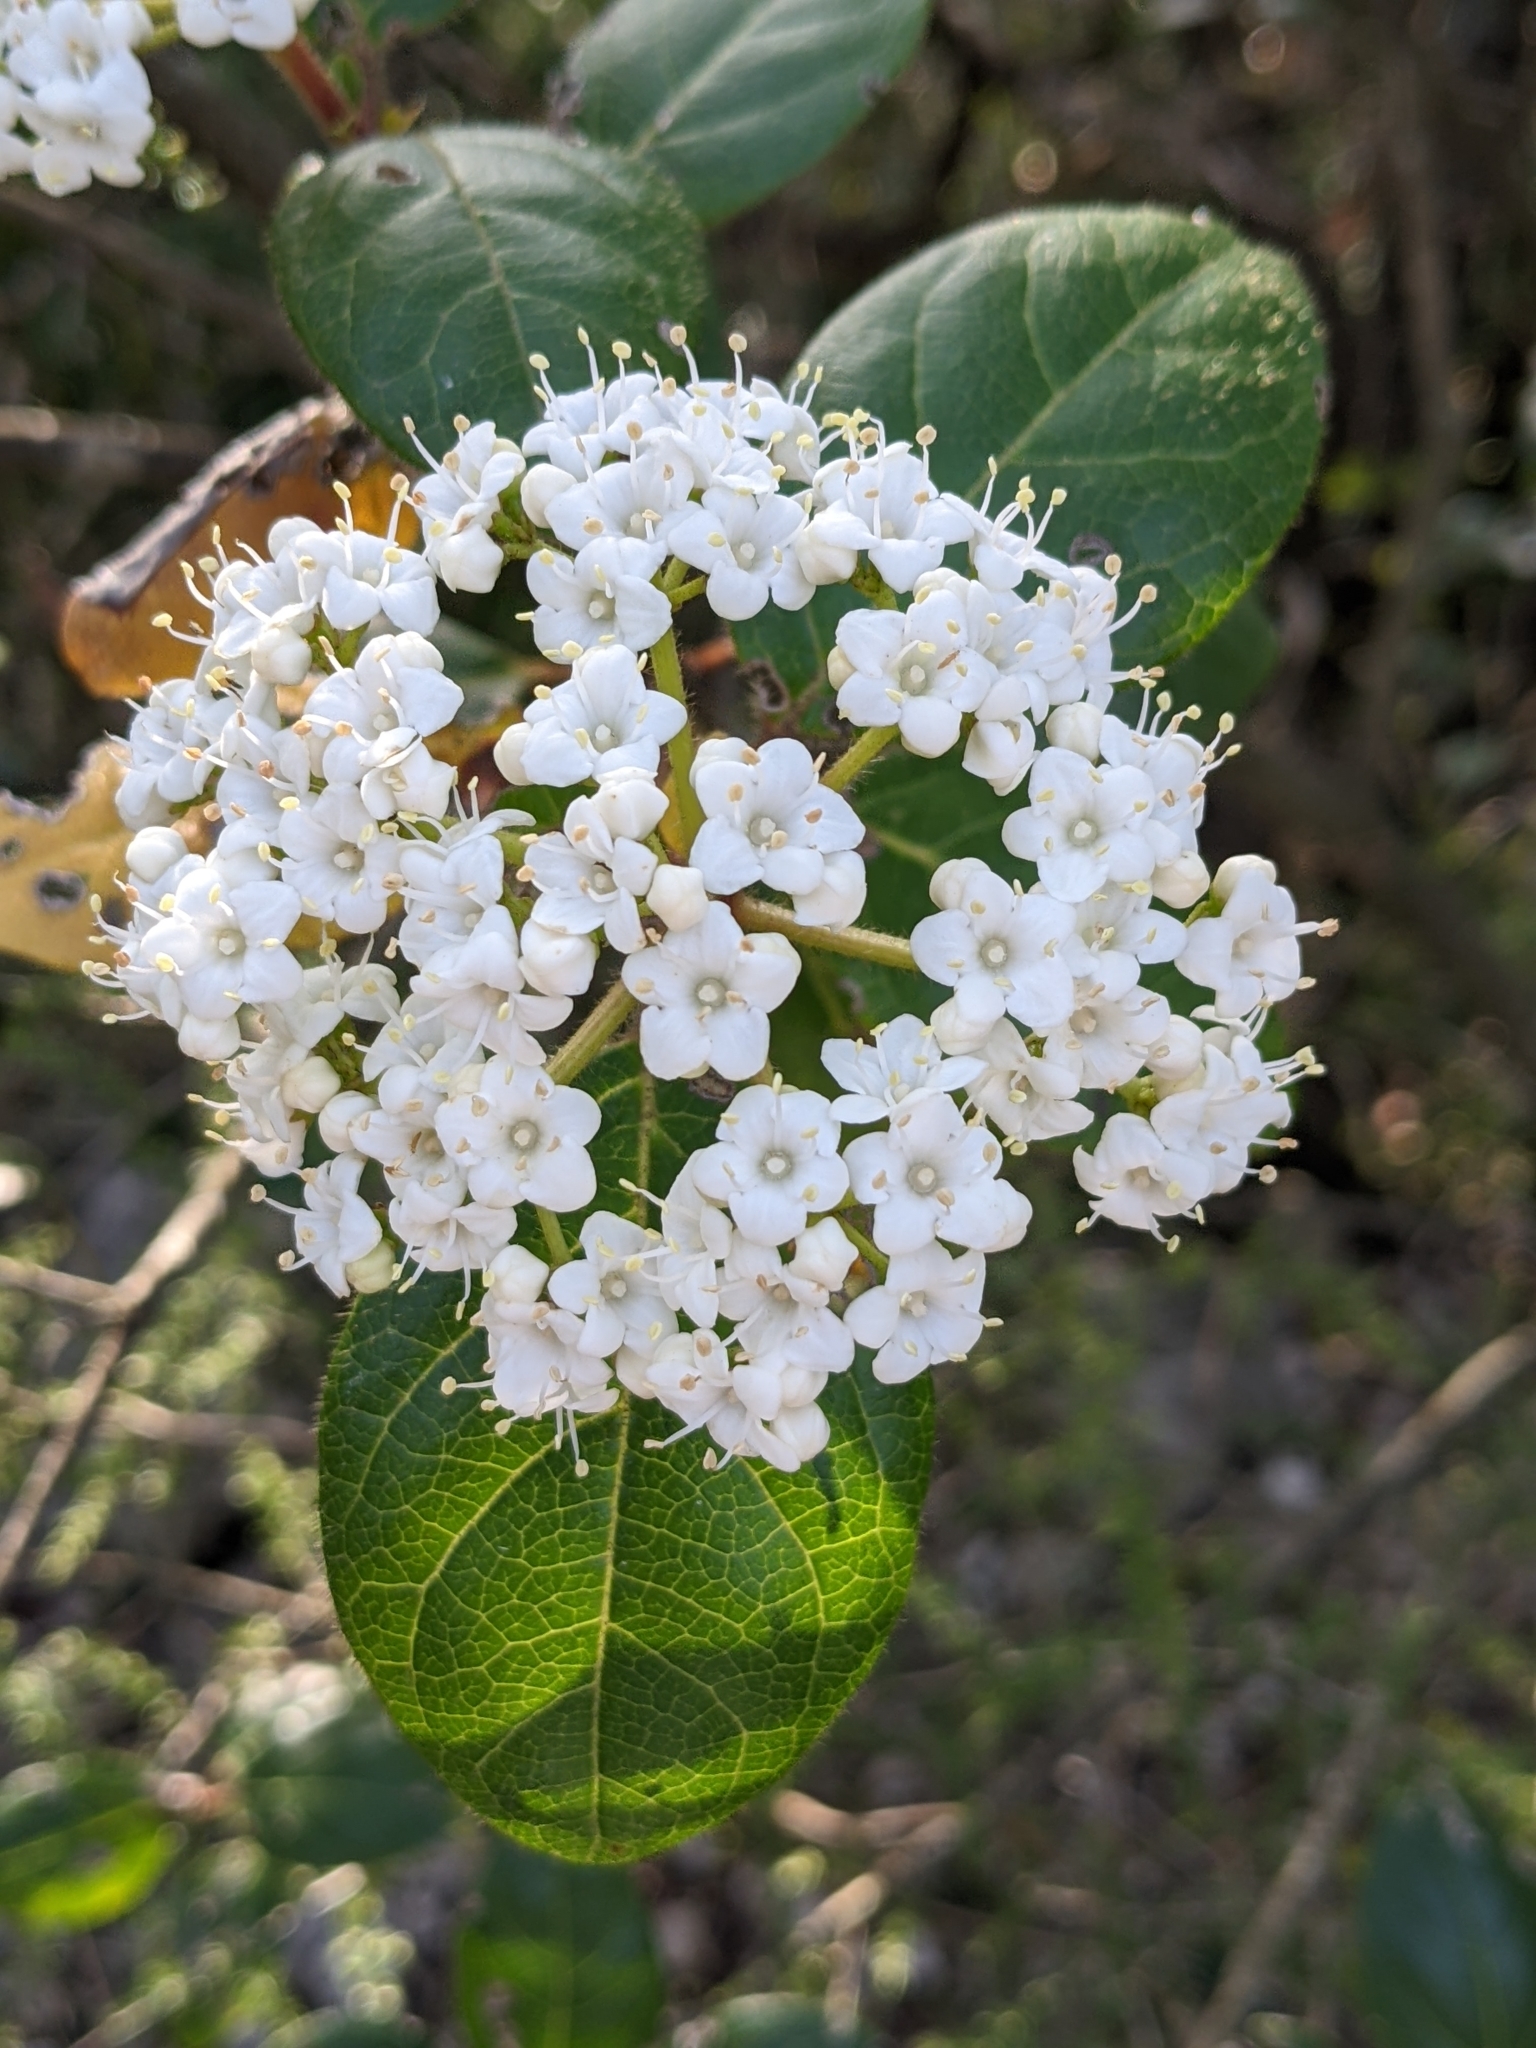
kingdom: Plantae
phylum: Tracheophyta
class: Magnoliopsida
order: Dipsacales
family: Viburnaceae
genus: Viburnum
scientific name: Viburnum tinus
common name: Laurustinus
